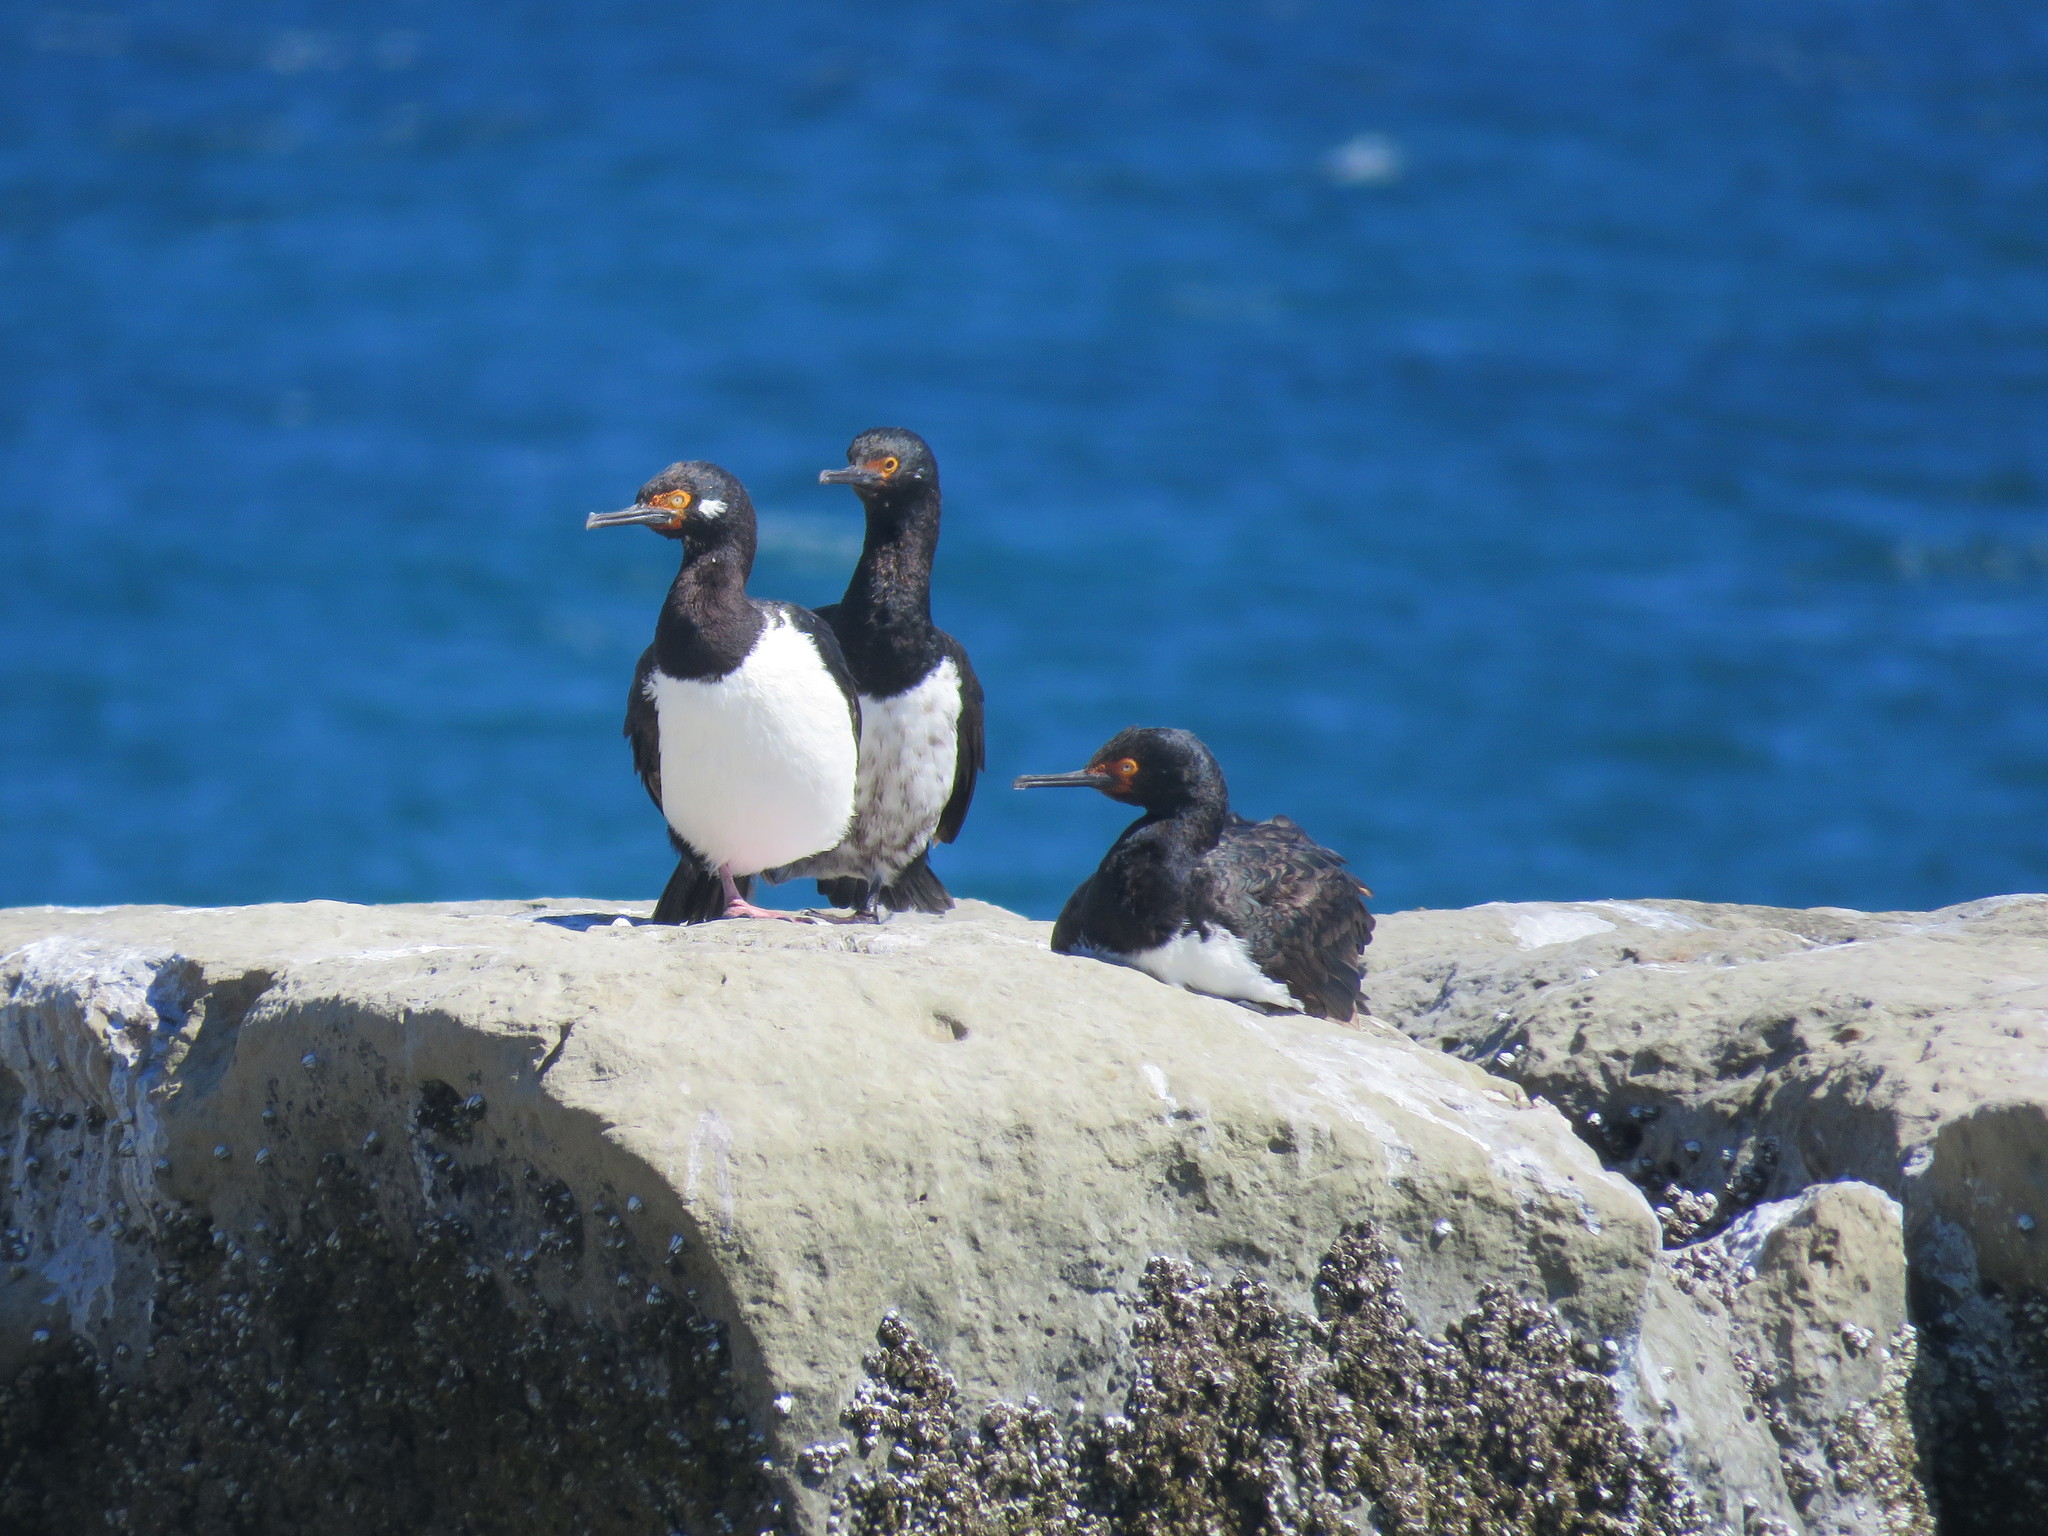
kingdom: Animalia
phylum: Chordata
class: Aves
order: Suliformes
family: Phalacrocoracidae
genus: Phalacrocorax
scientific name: Phalacrocorax magellanicus
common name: Rock shag
